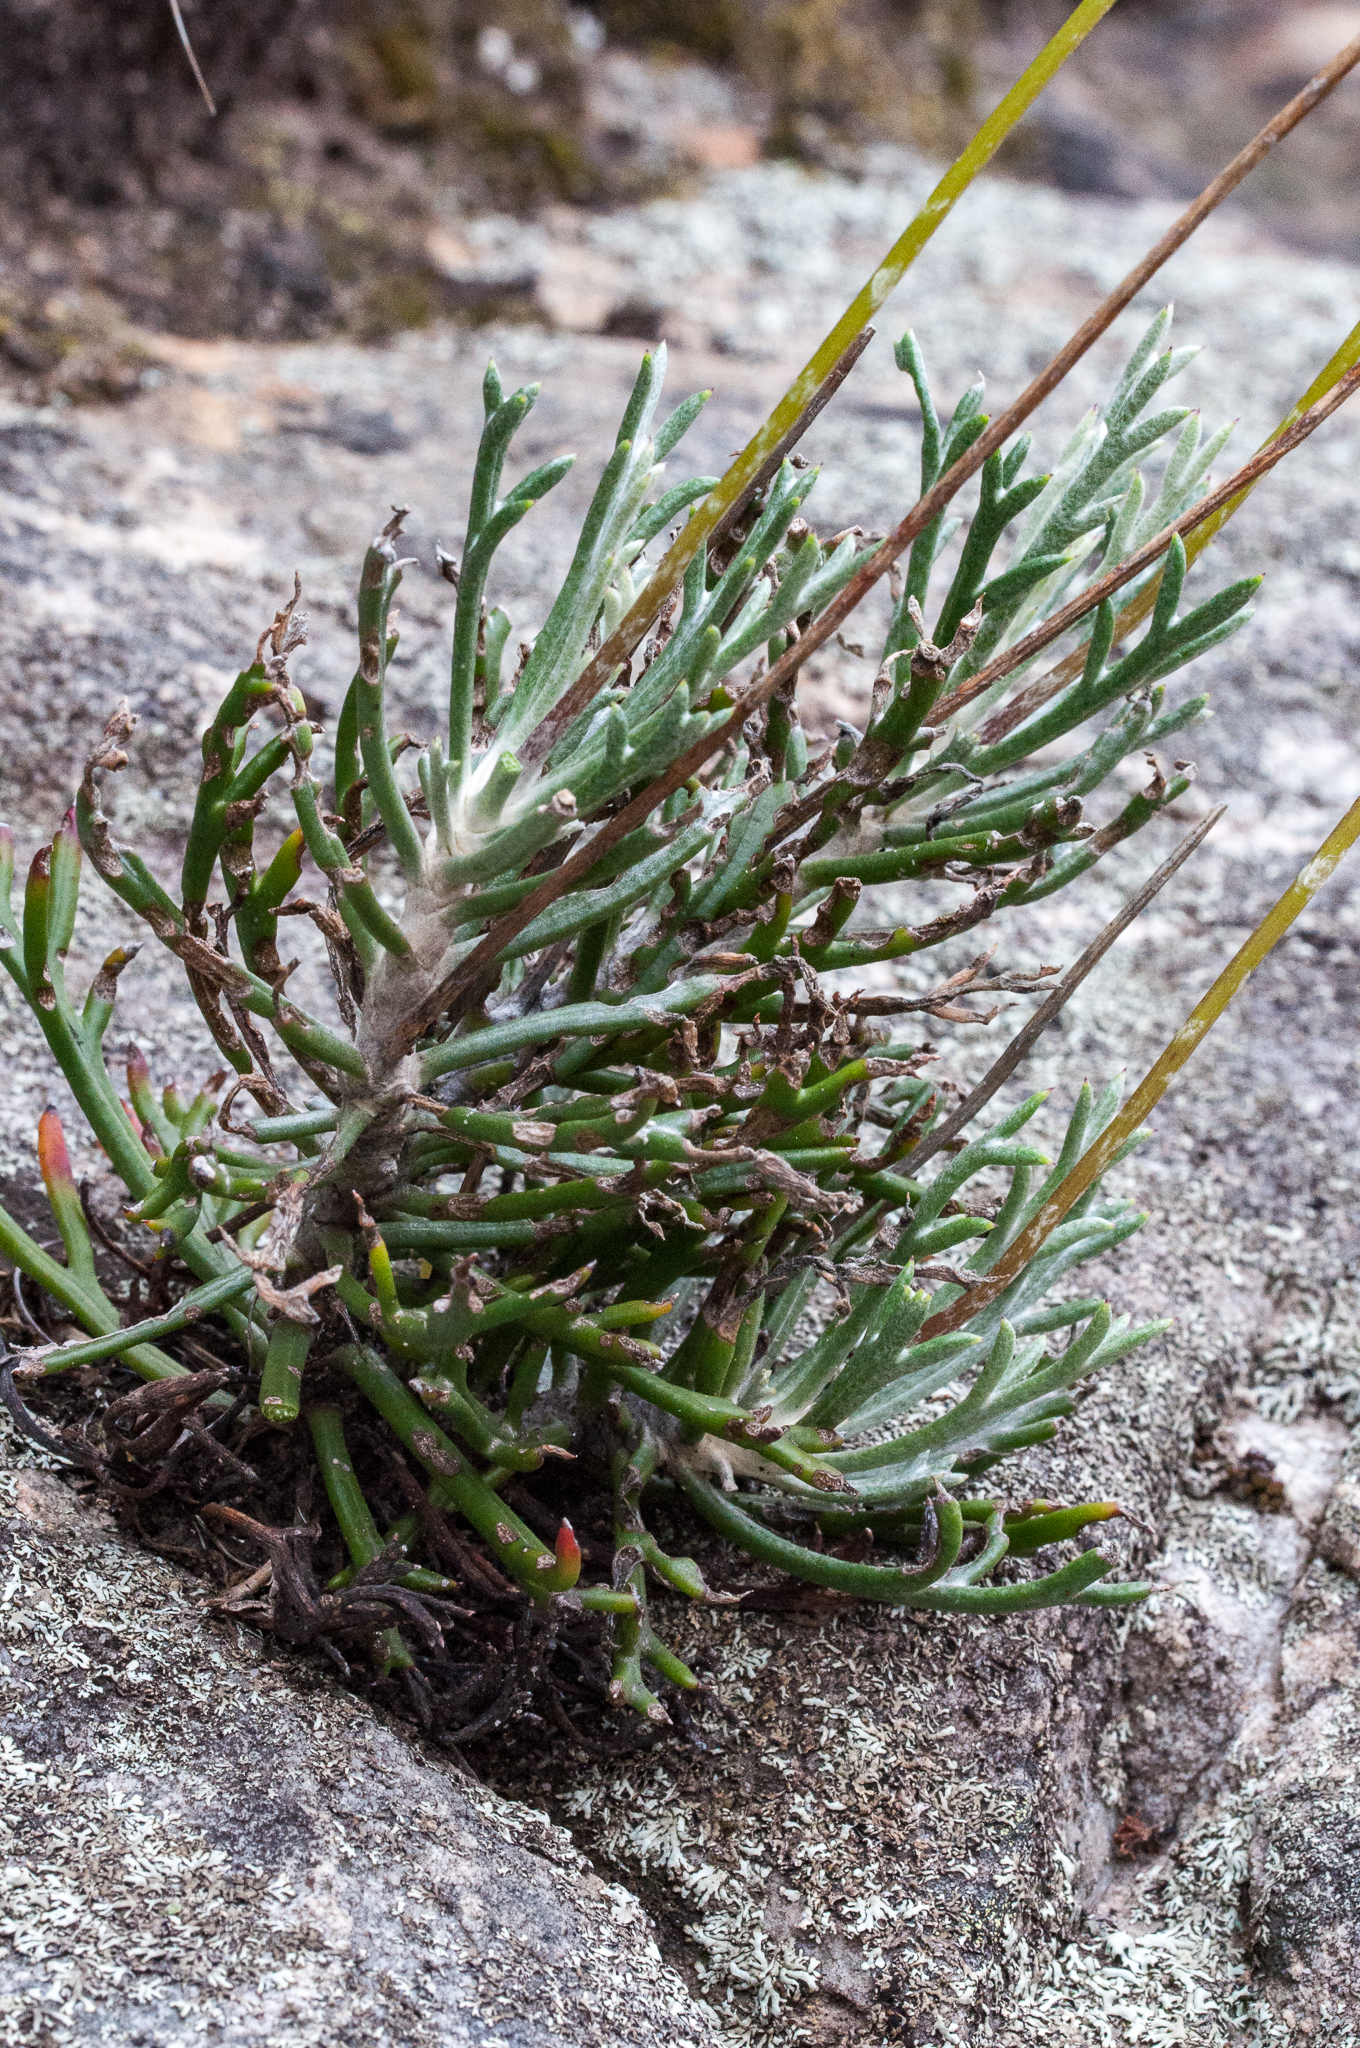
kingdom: Plantae
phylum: Tracheophyta
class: Magnoliopsida
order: Asterales
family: Asteraceae
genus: Euryops
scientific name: Euryops othonnoides
